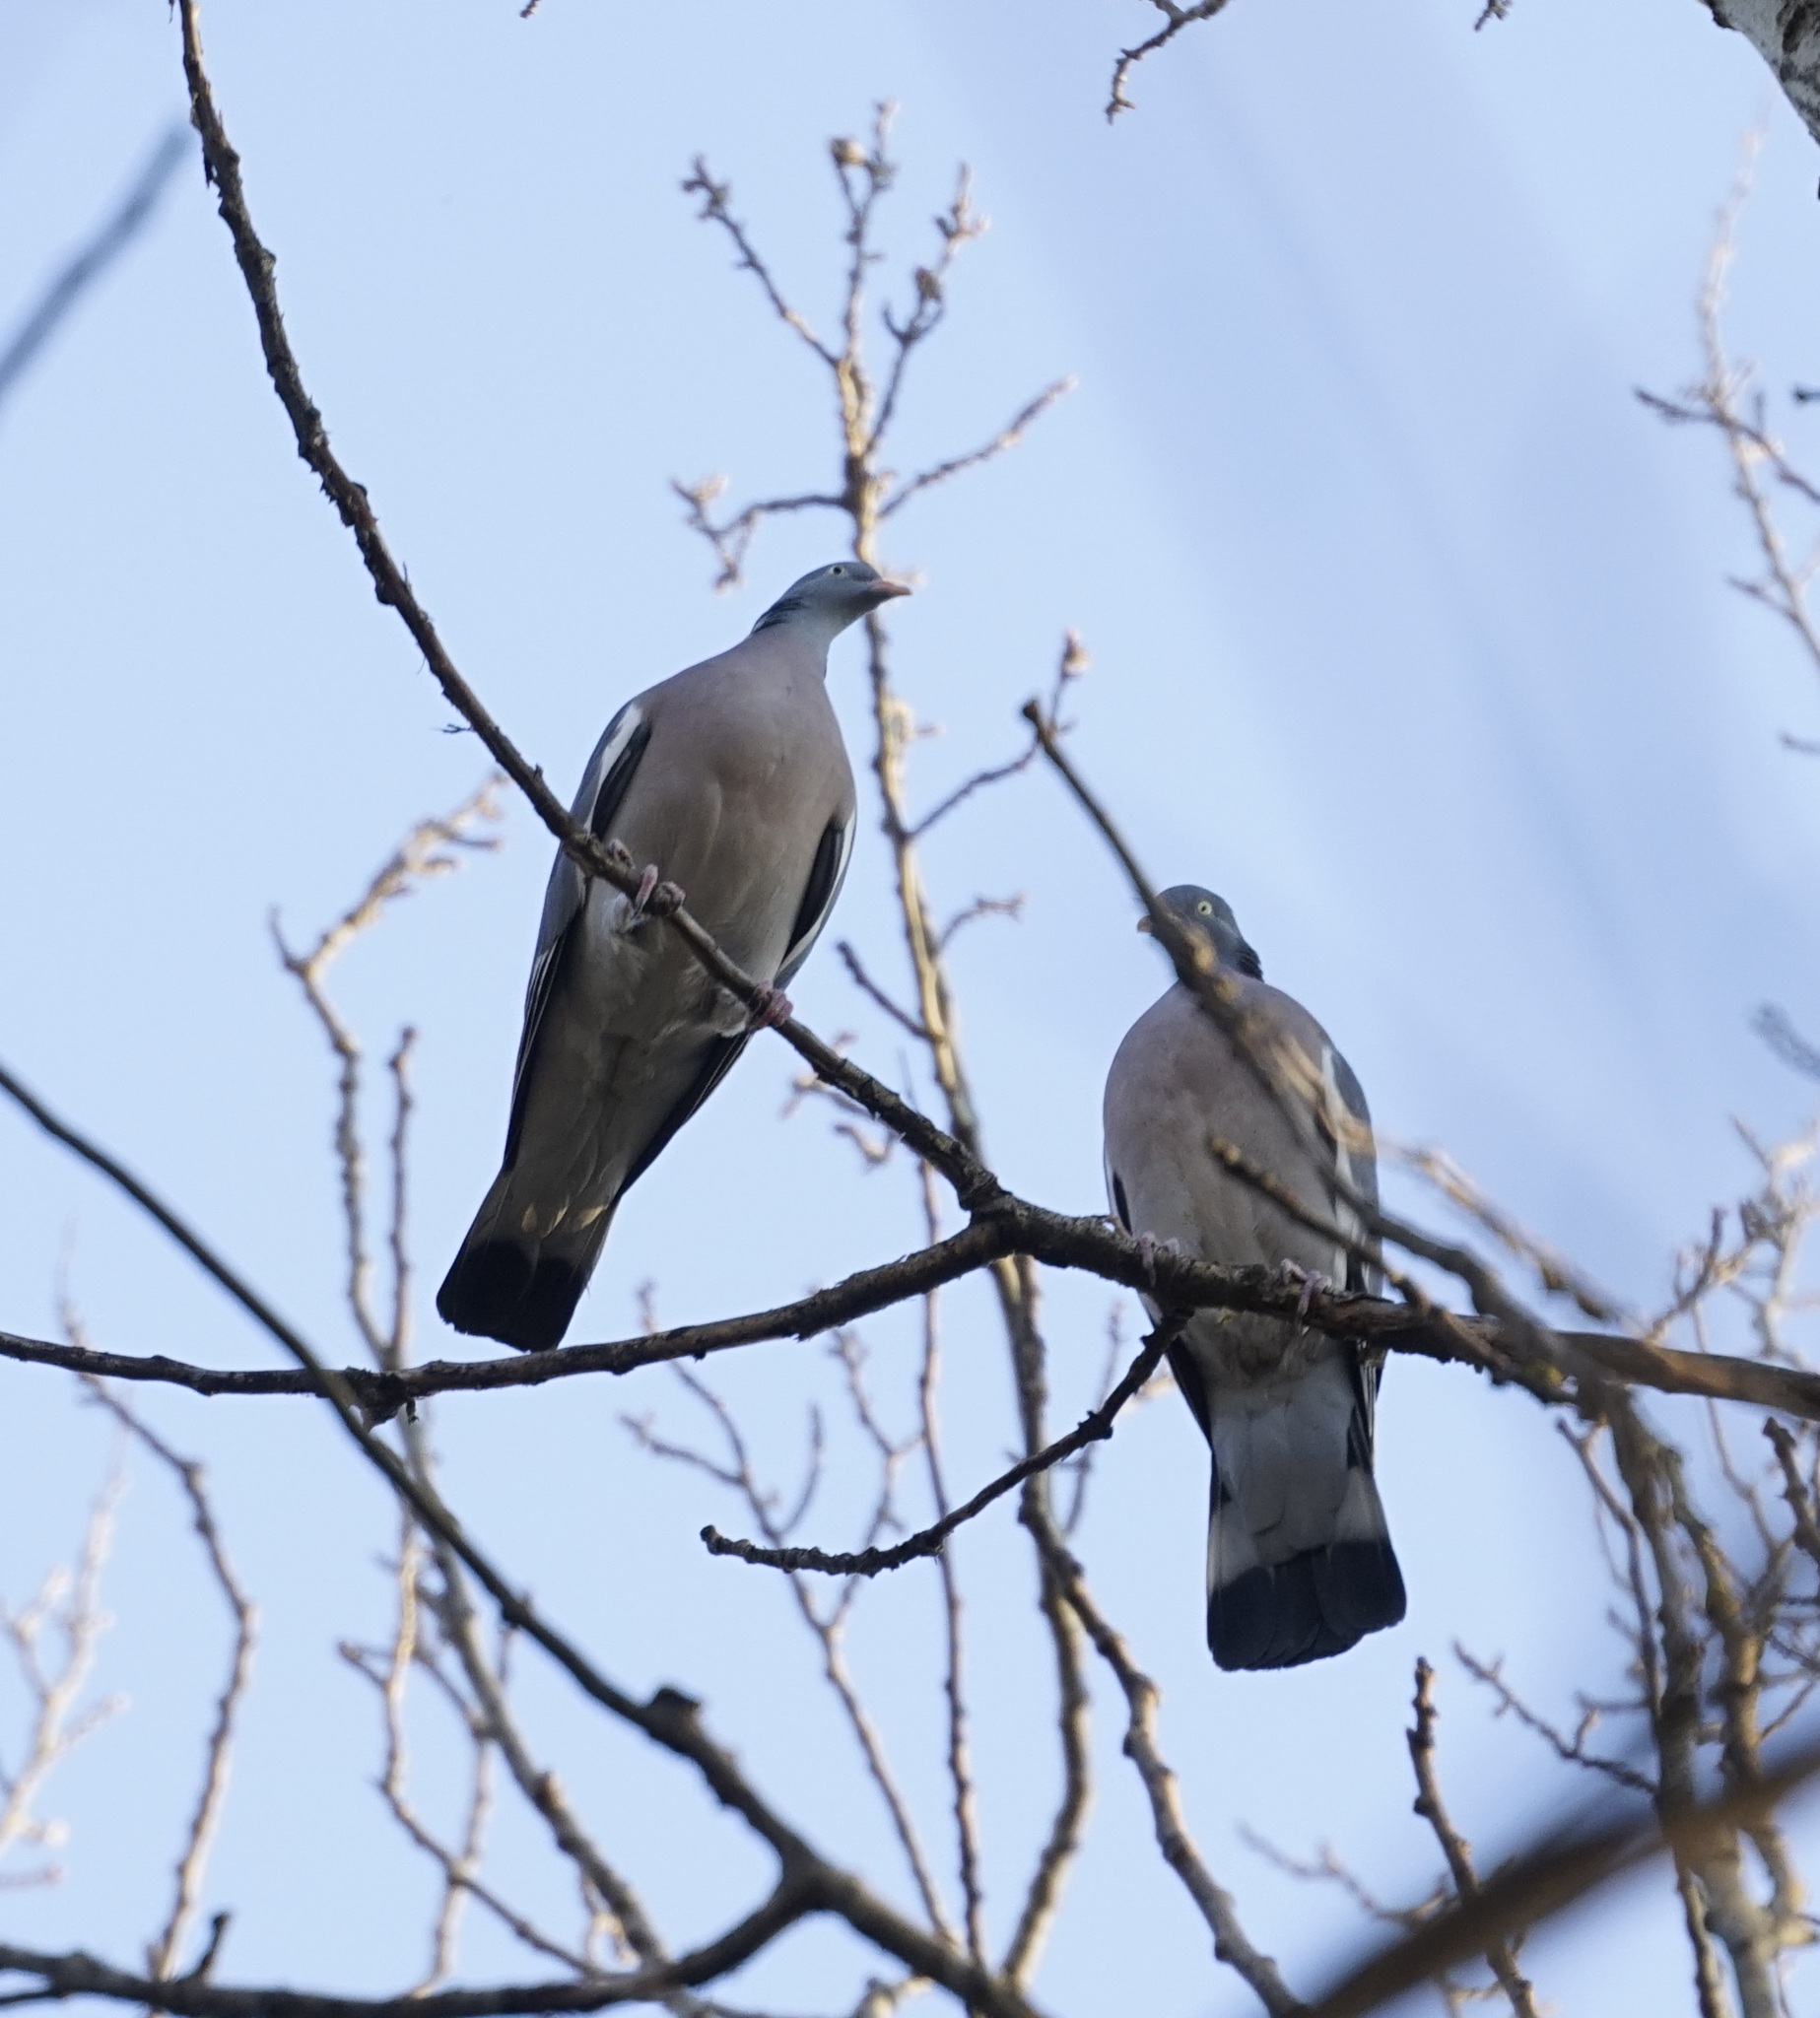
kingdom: Animalia
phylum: Chordata
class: Aves
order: Columbiformes
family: Columbidae
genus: Columba
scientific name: Columba palumbus
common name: Common wood pigeon
